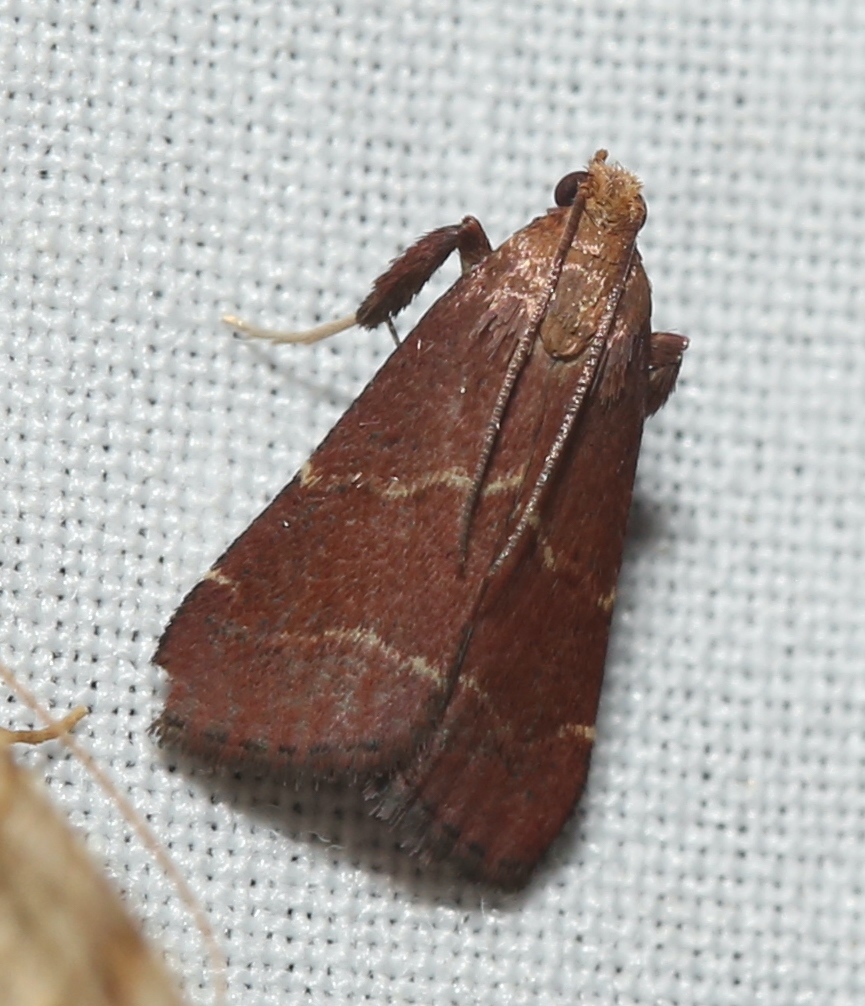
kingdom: Animalia
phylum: Arthropoda
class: Insecta
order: Lepidoptera
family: Pyralidae
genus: Arta
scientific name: Arta statalis
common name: Posturing arta moth
